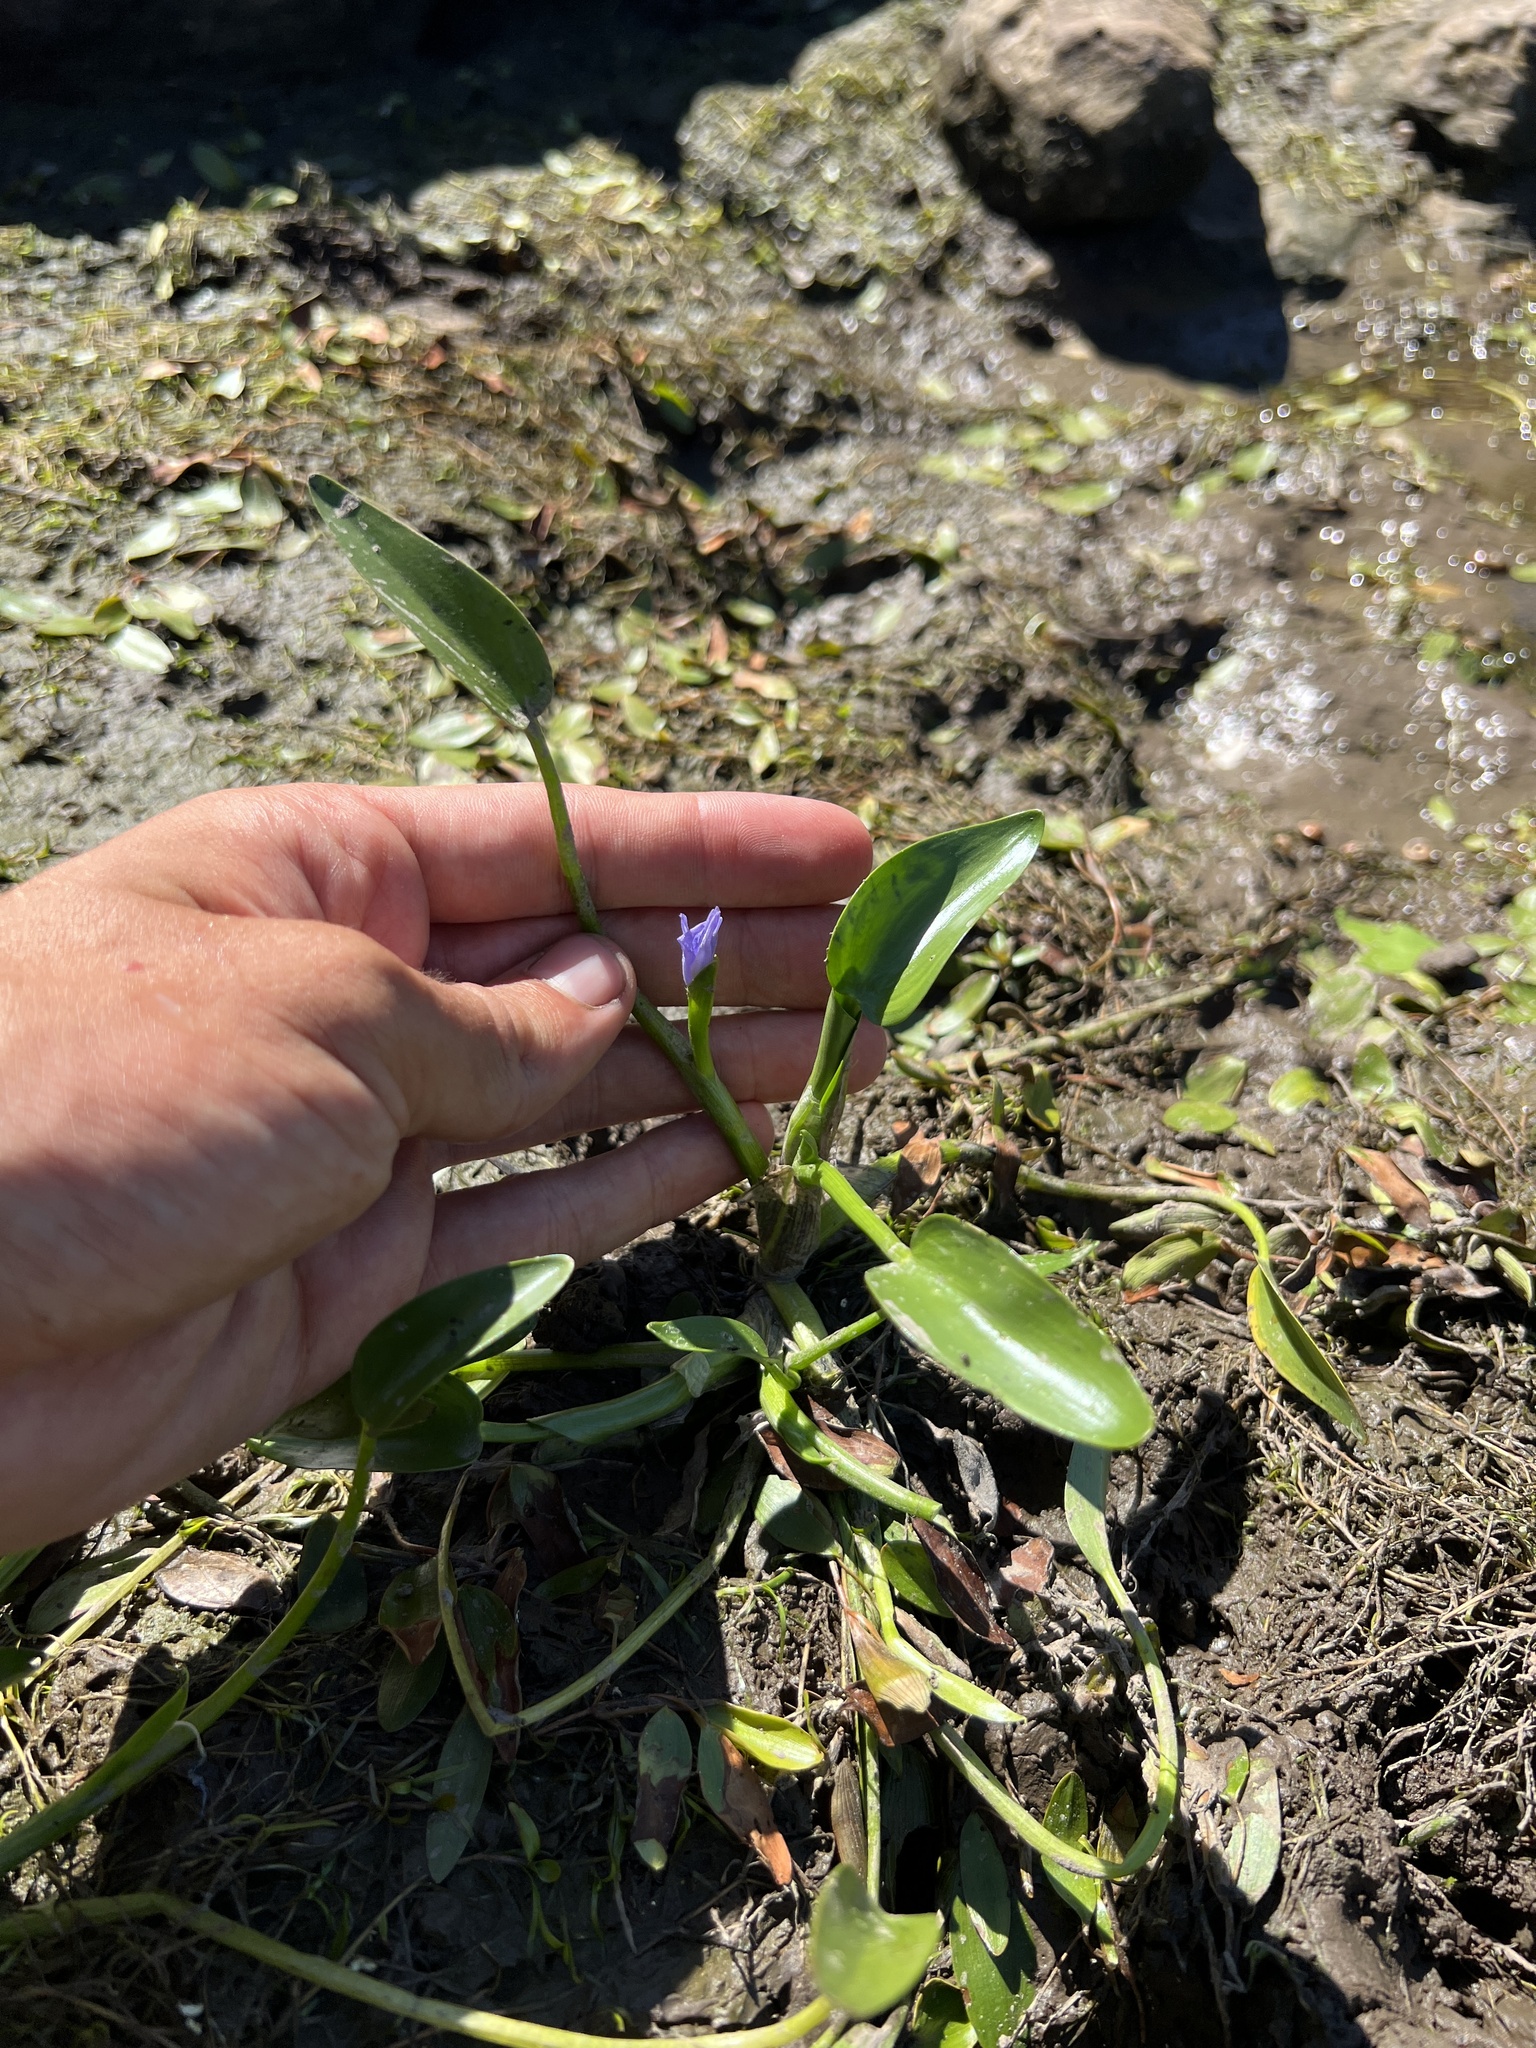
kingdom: Plantae
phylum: Tracheophyta
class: Liliopsida
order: Commelinales
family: Pontederiaceae
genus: Heteranthera
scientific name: Heteranthera limosa
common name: Blue mud-plantain
